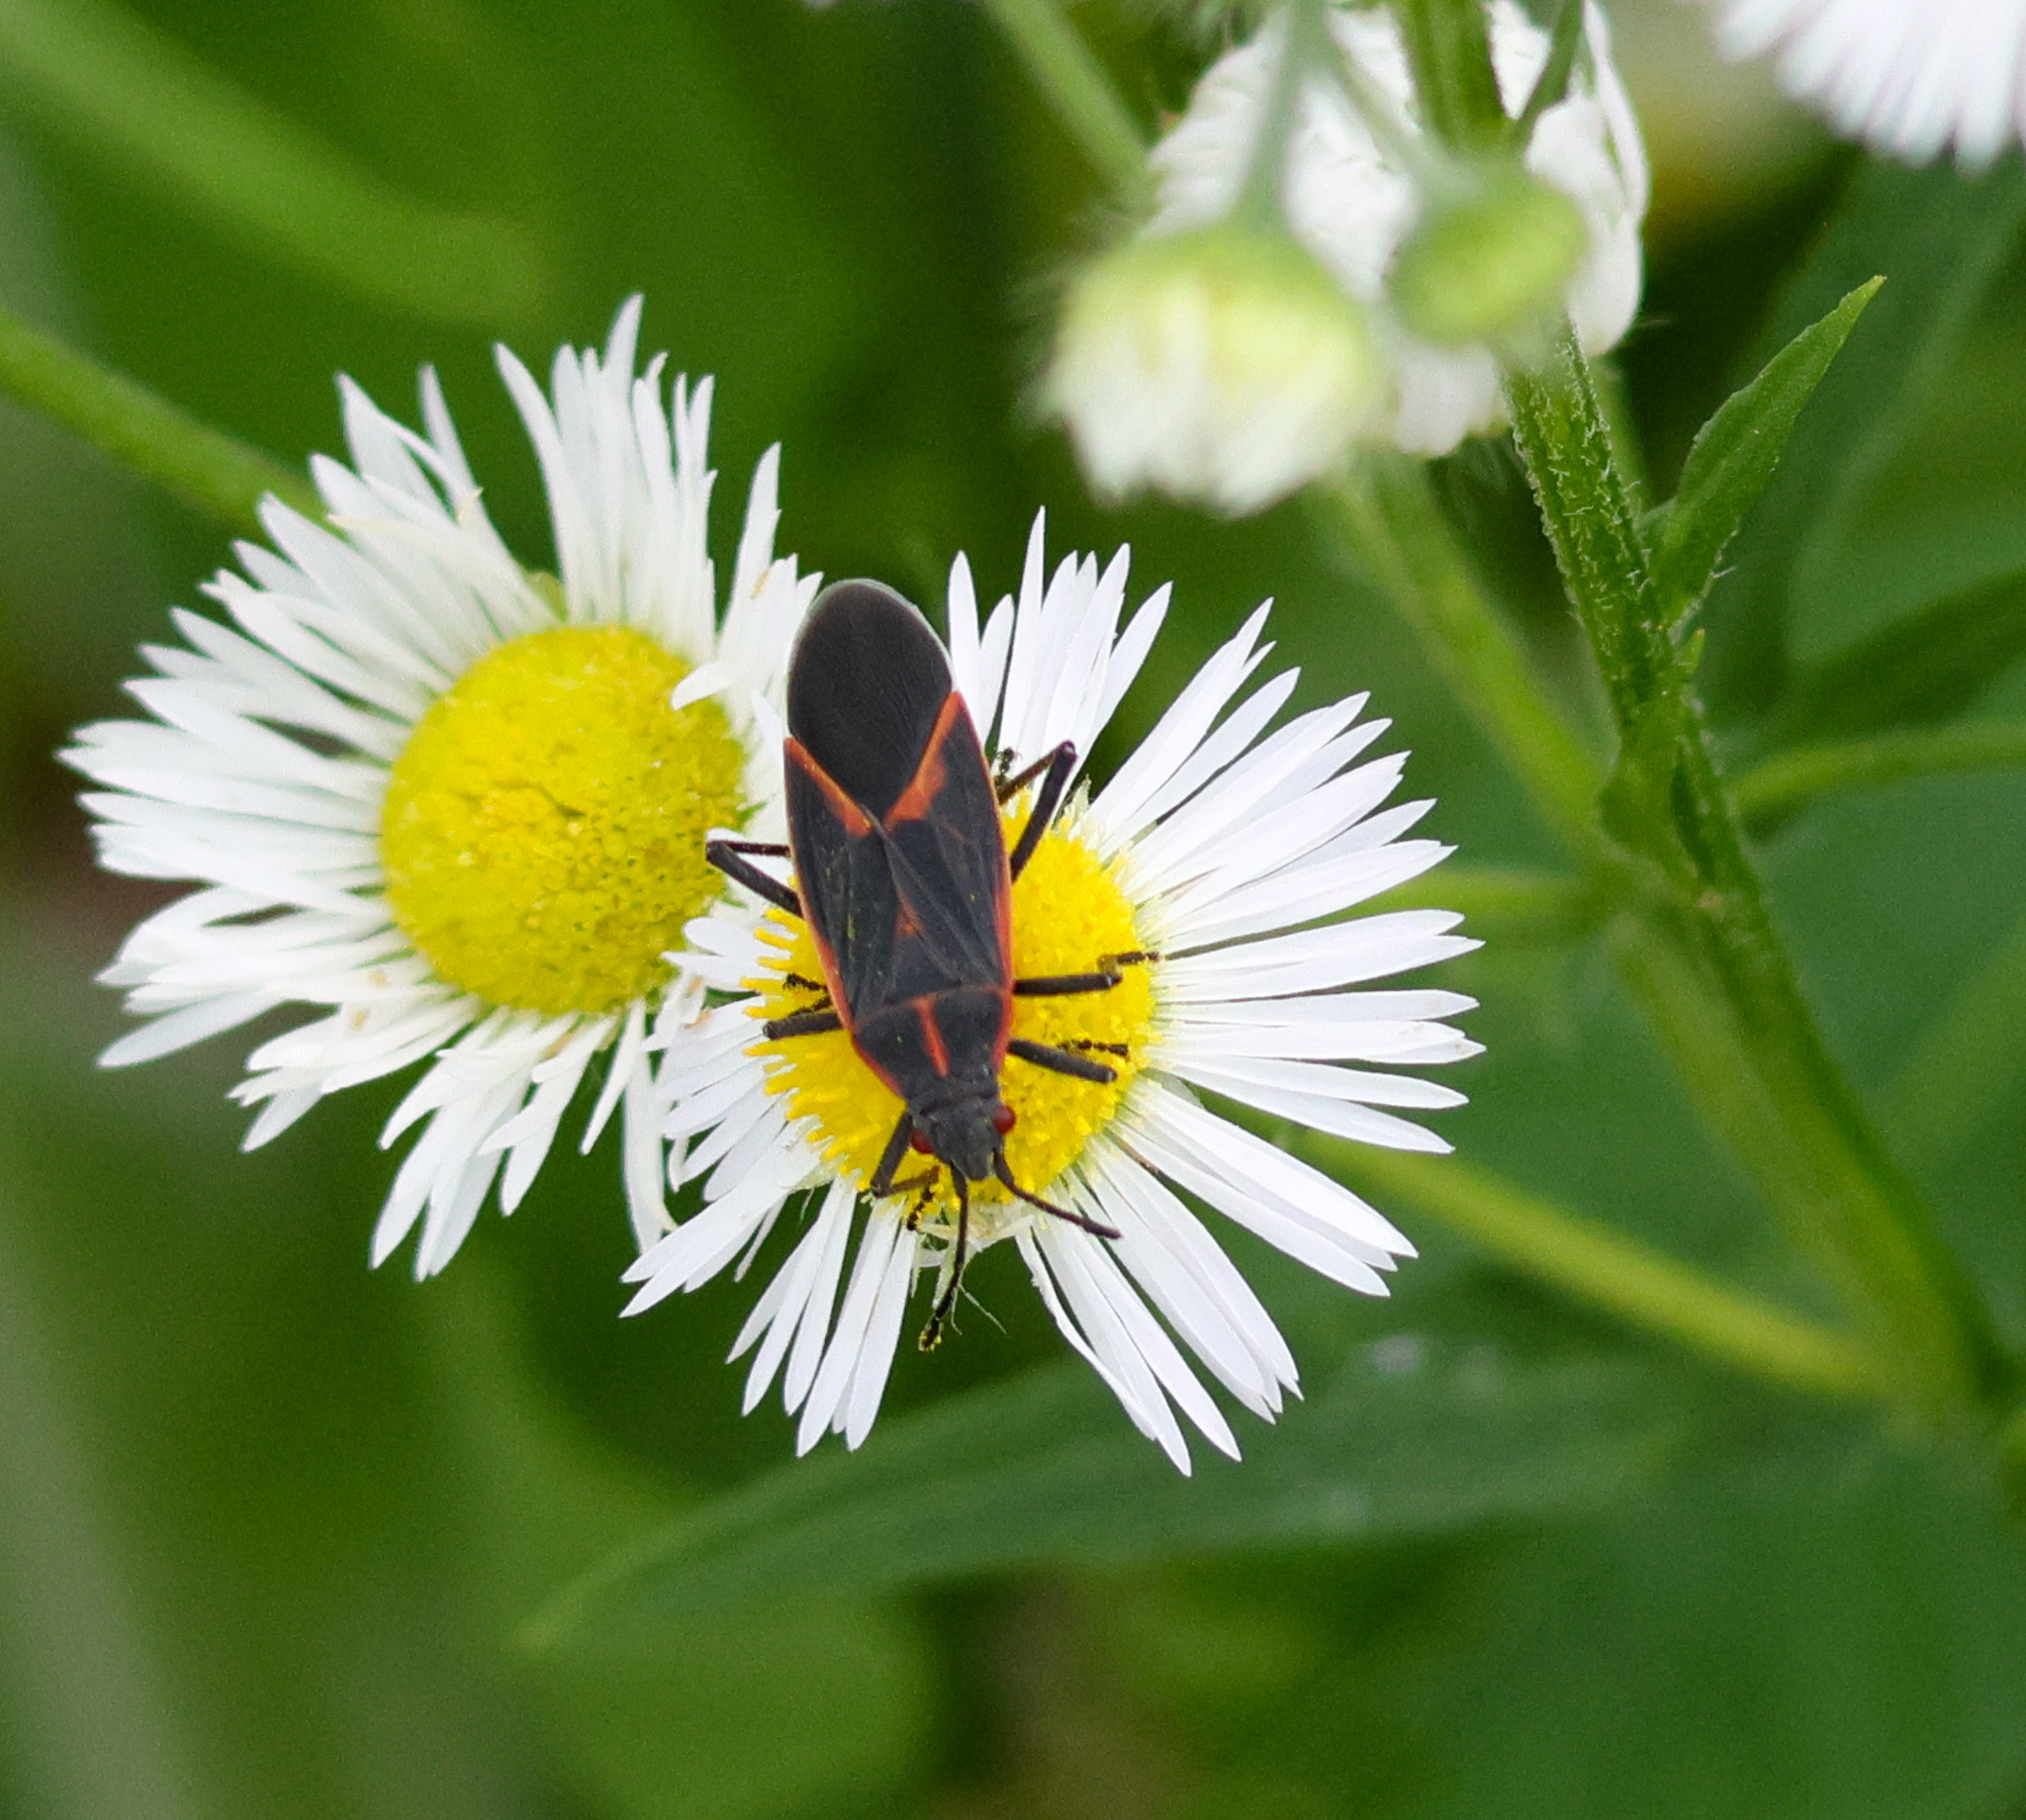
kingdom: Animalia
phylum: Arthropoda
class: Insecta
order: Hemiptera
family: Rhopalidae
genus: Boisea
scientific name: Boisea trivittata
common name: Boxelder bug
